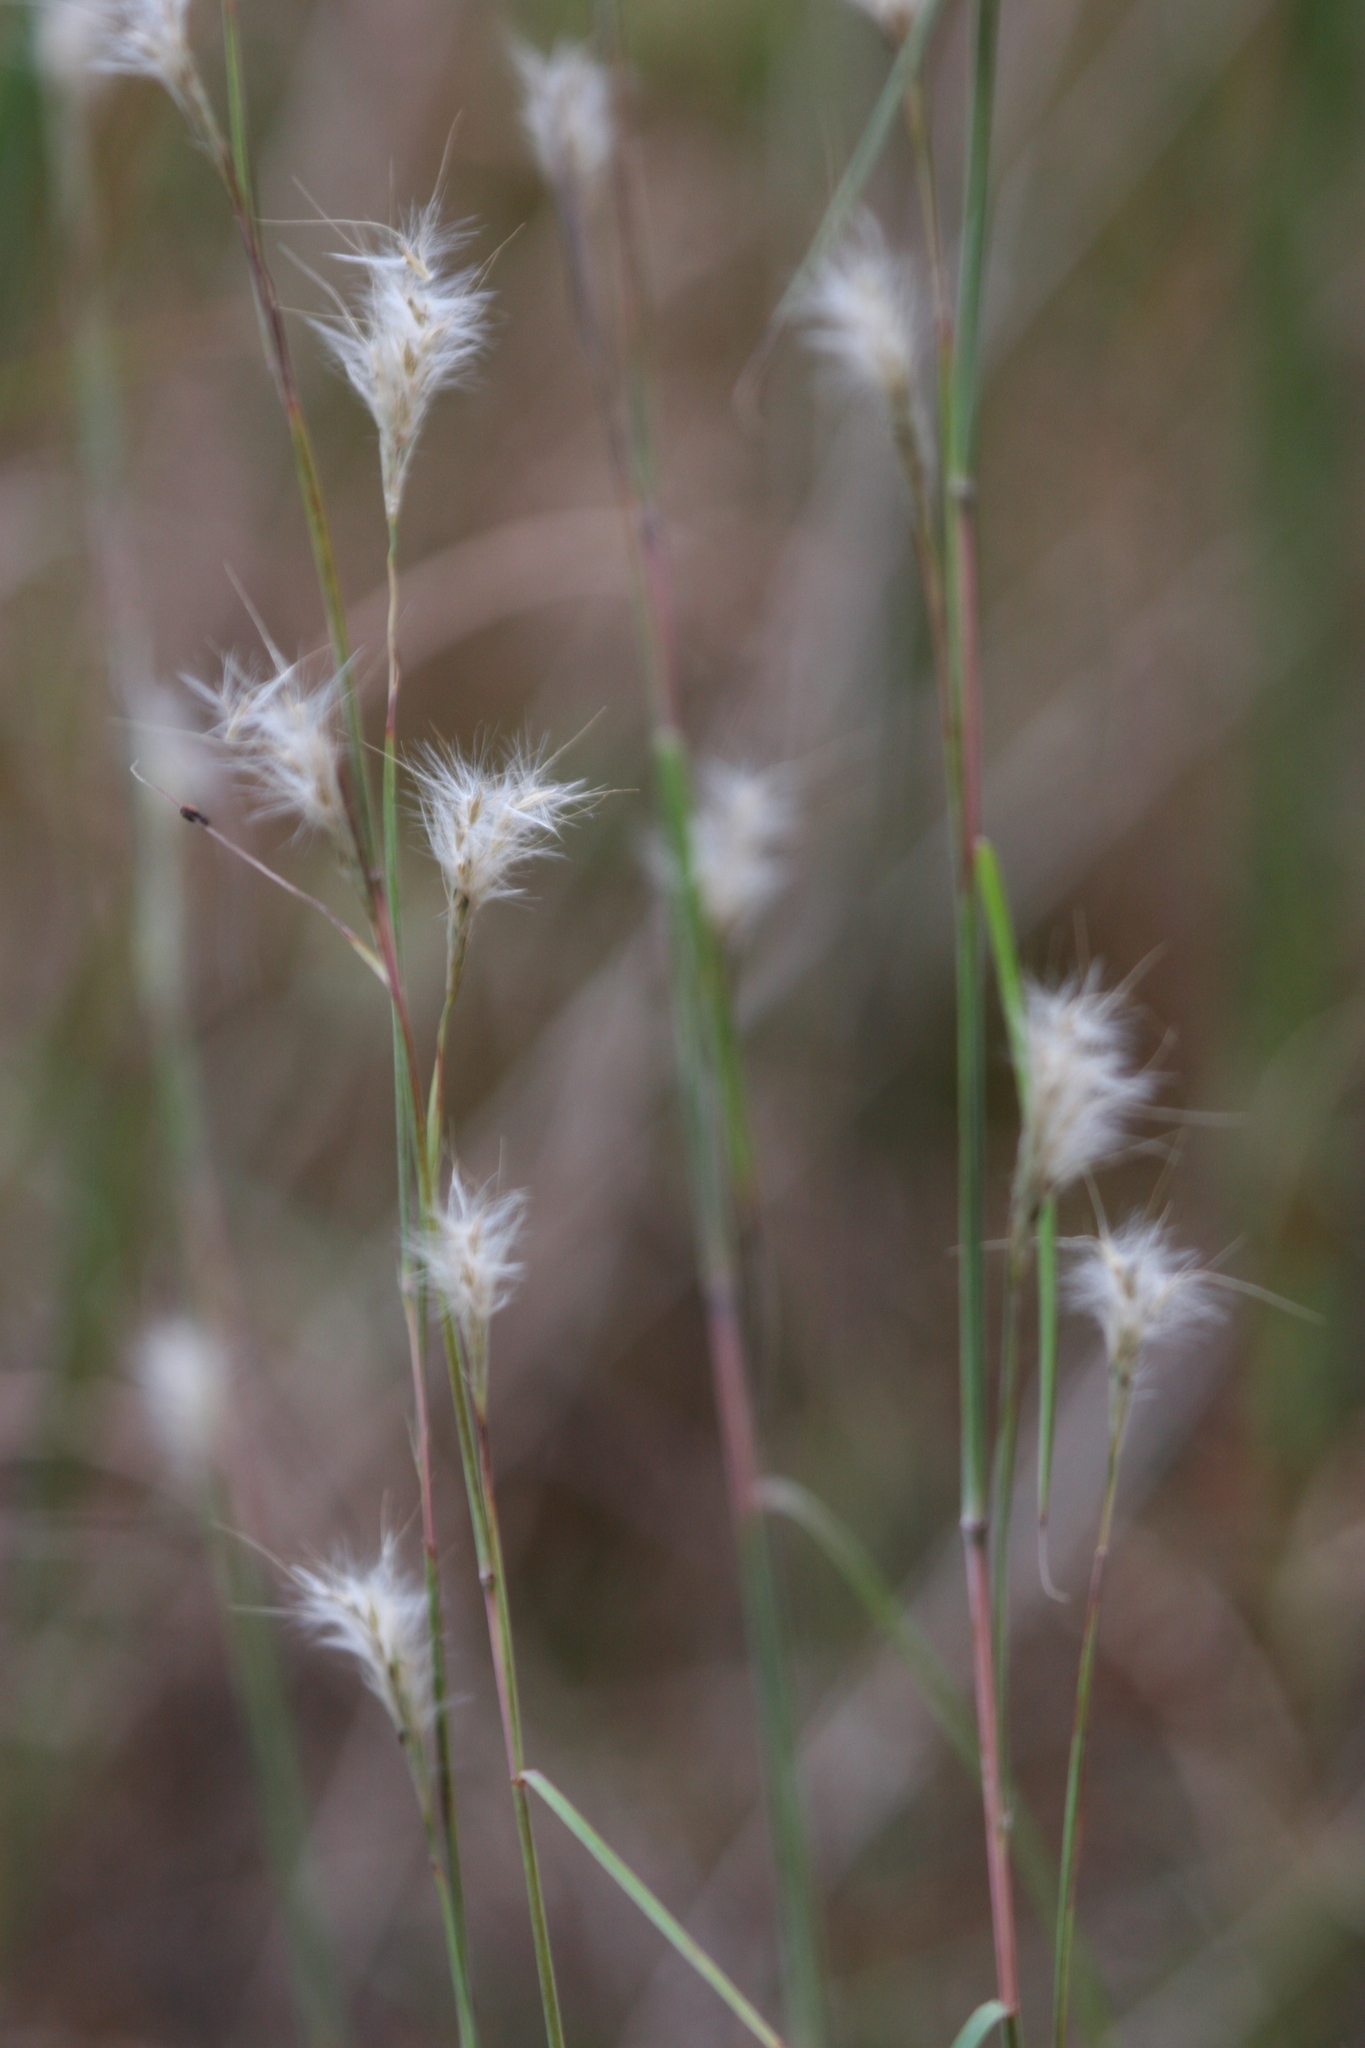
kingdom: Plantae
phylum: Tracheophyta
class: Liliopsida
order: Poales
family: Poaceae
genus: Andropogon
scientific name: Andropogon ternarius
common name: Split bluestem
